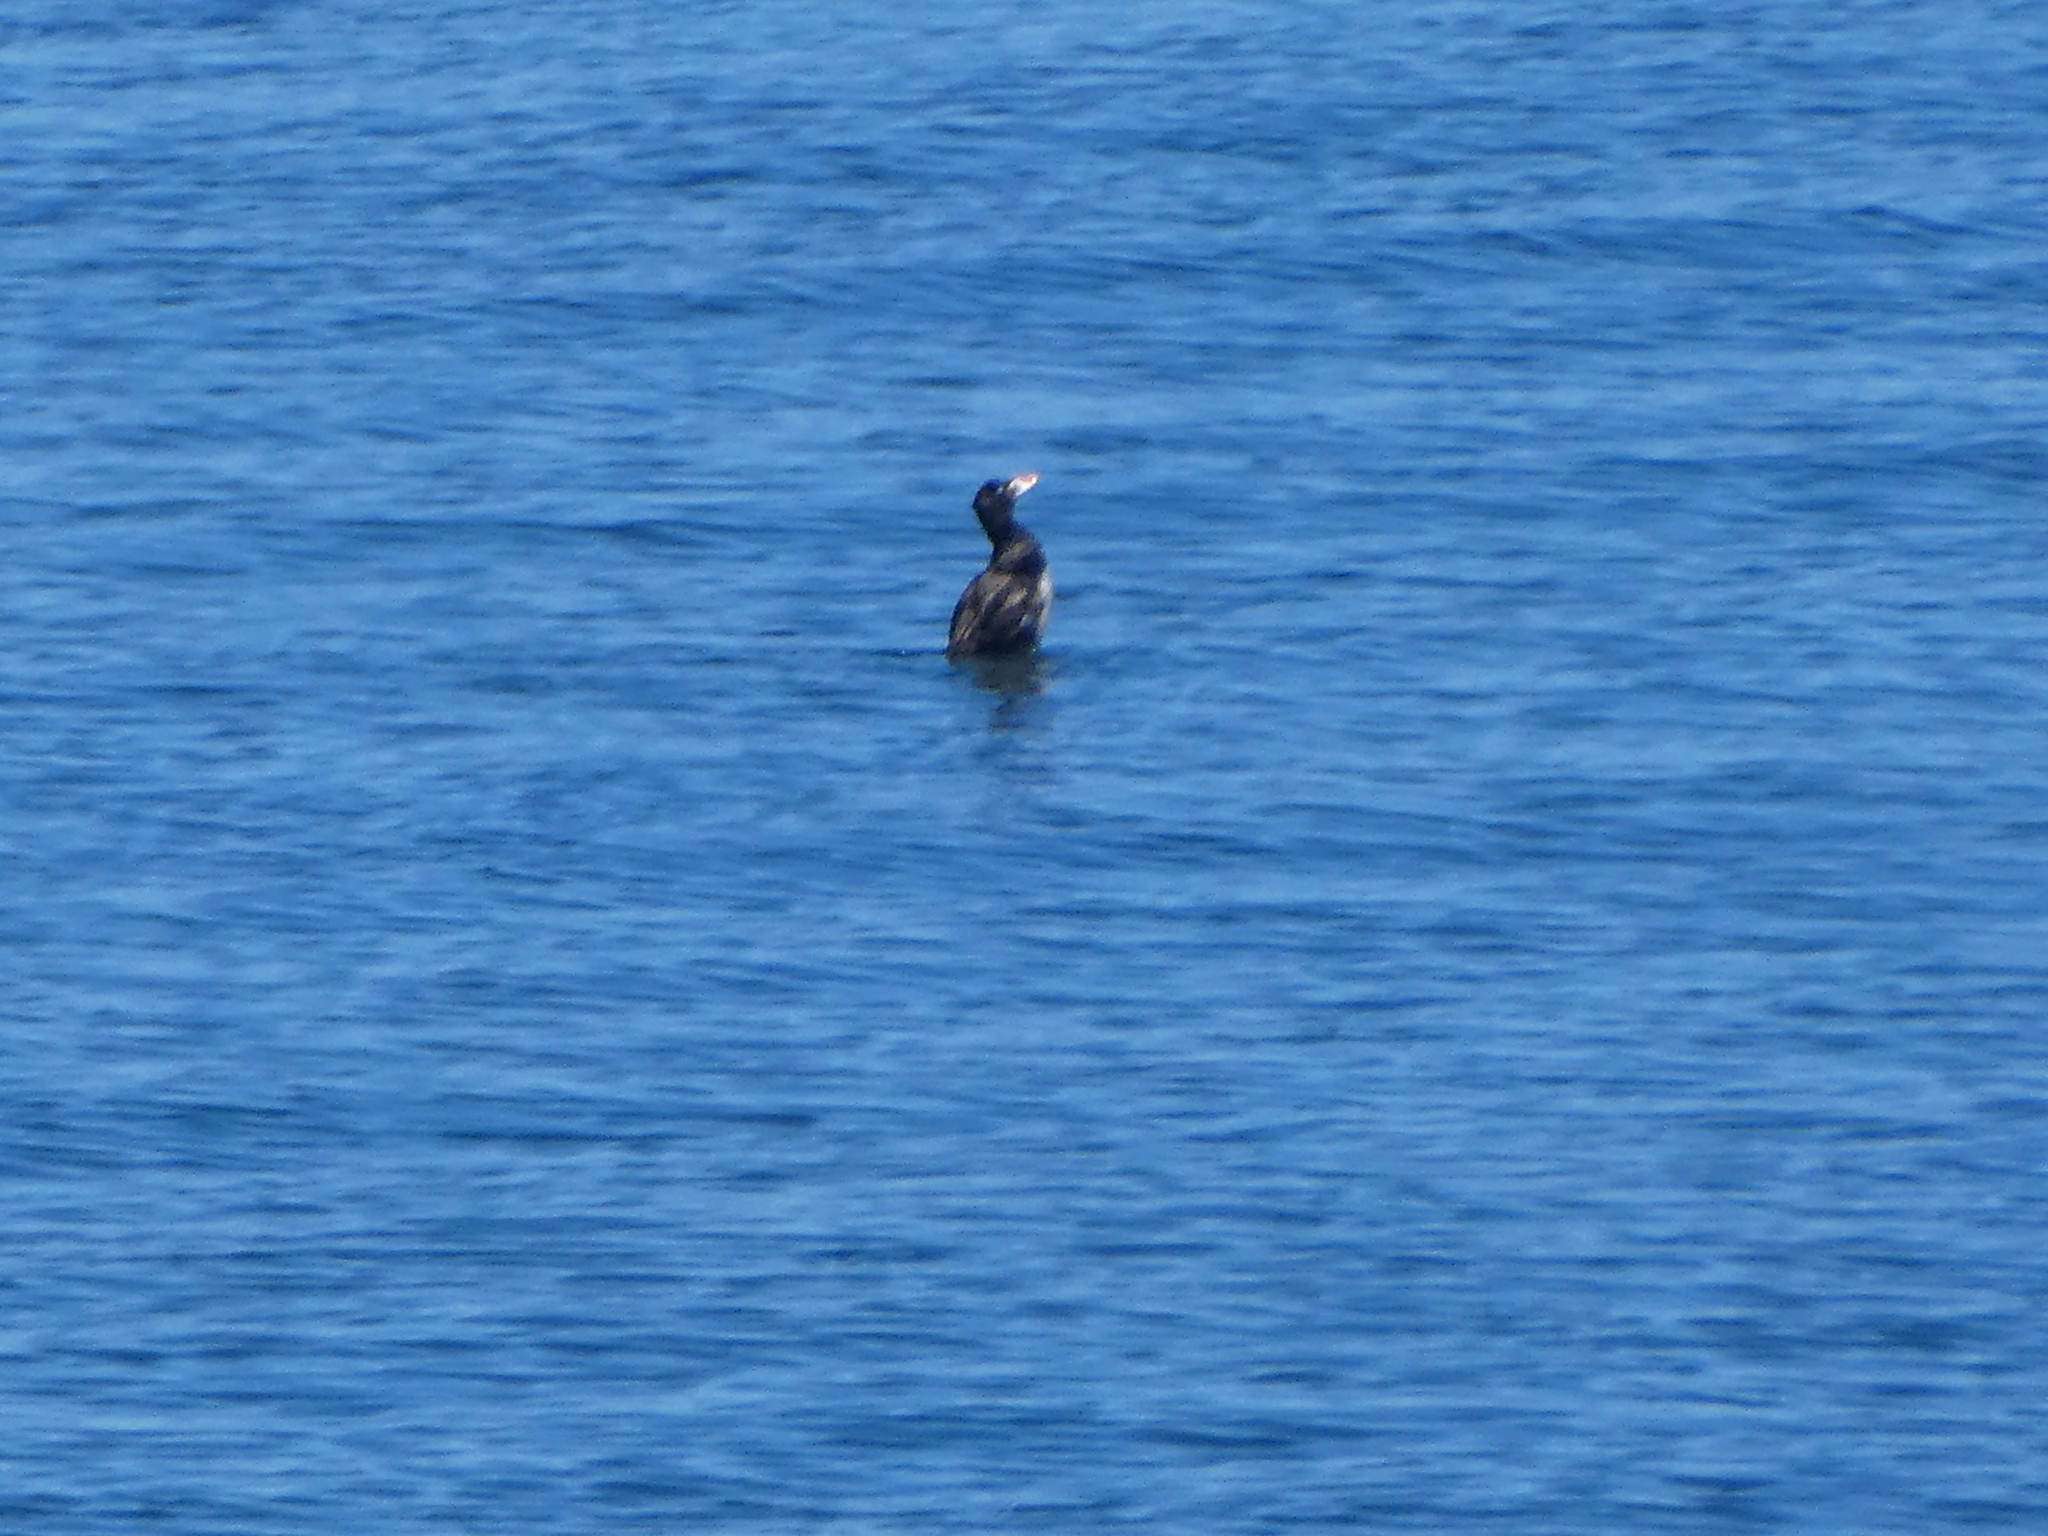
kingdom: Animalia
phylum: Chordata
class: Aves
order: Anseriformes
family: Anatidae
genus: Melanitta
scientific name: Melanitta perspicillata
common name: Surf scoter
